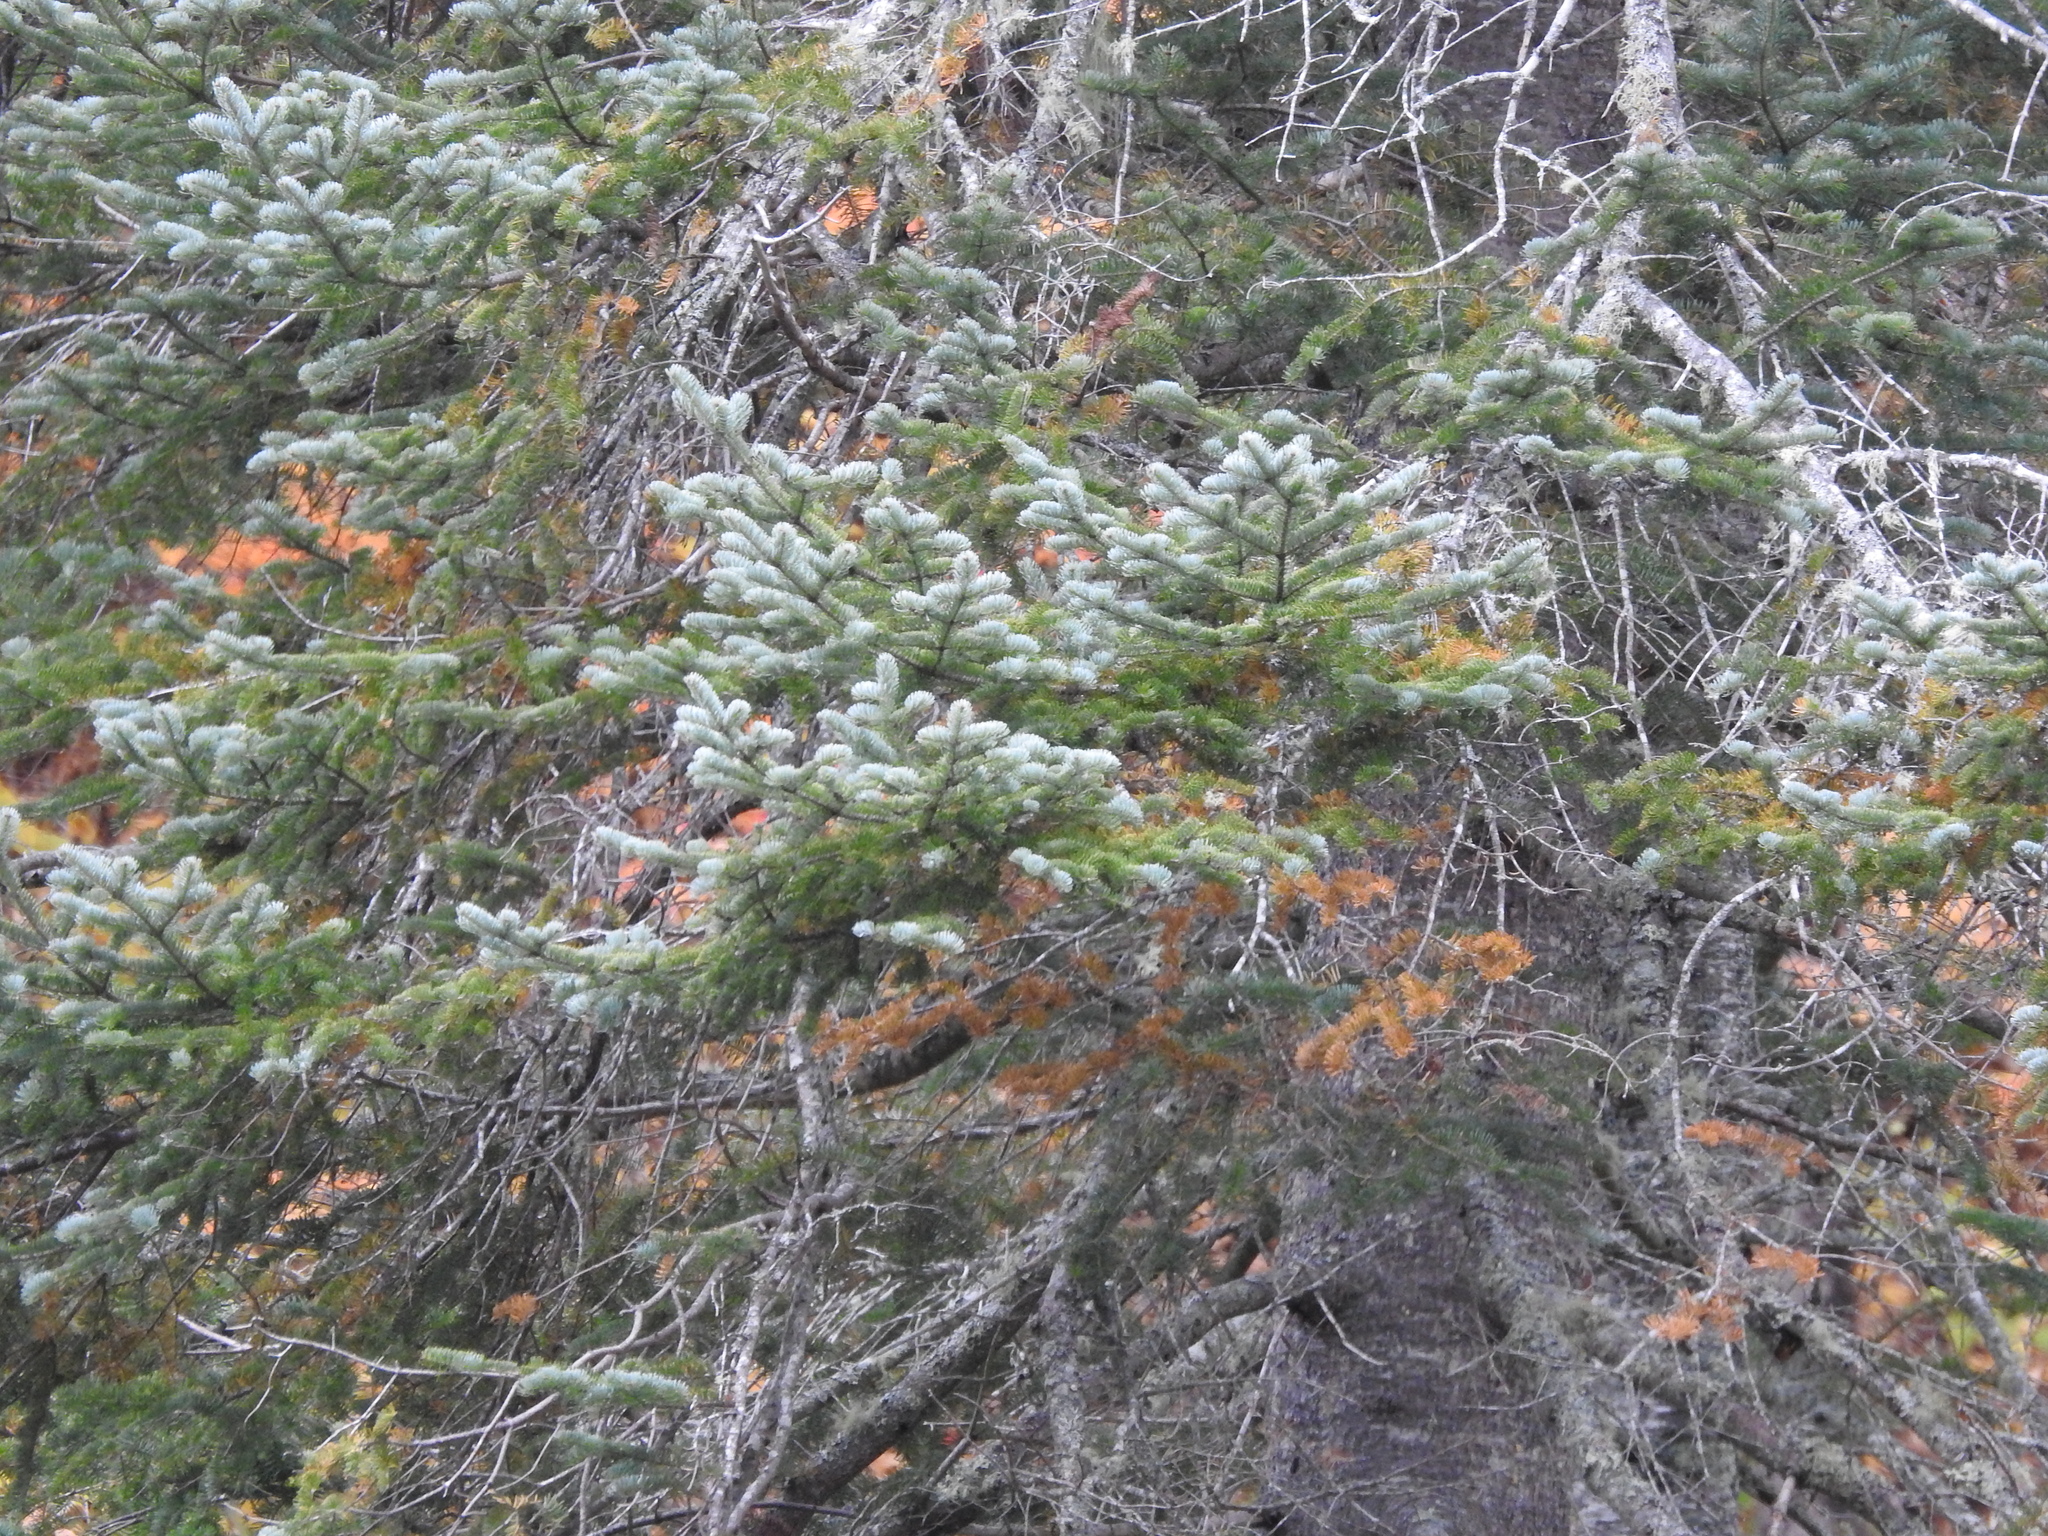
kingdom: Plantae
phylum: Tracheophyta
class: Pinopsida
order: Pinales
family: Pinaceae
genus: Abies
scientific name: Abies balsamea
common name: Balsam fir
